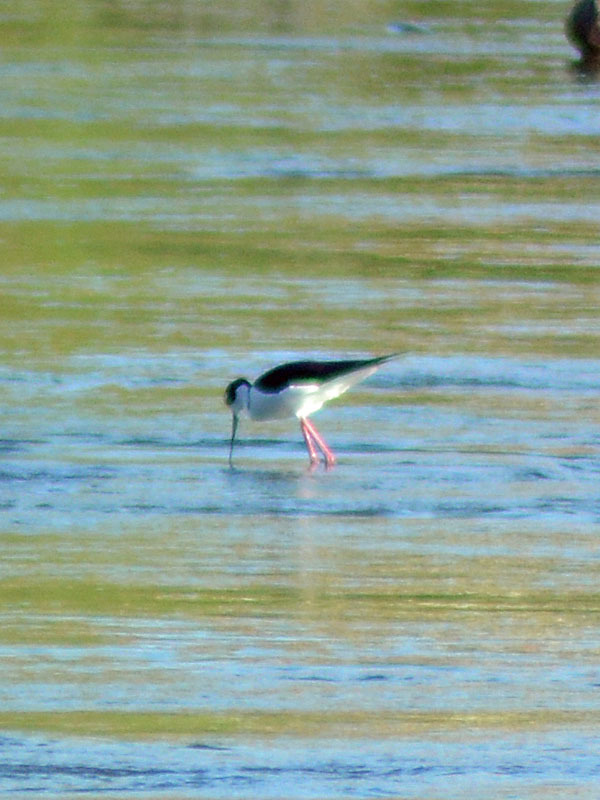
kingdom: Animalia
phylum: Chordata
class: Aves
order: Charadriiformes
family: Recurvirostridae
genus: Himantopus
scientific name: Himantopus mexicanus
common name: Black-necked stilt
